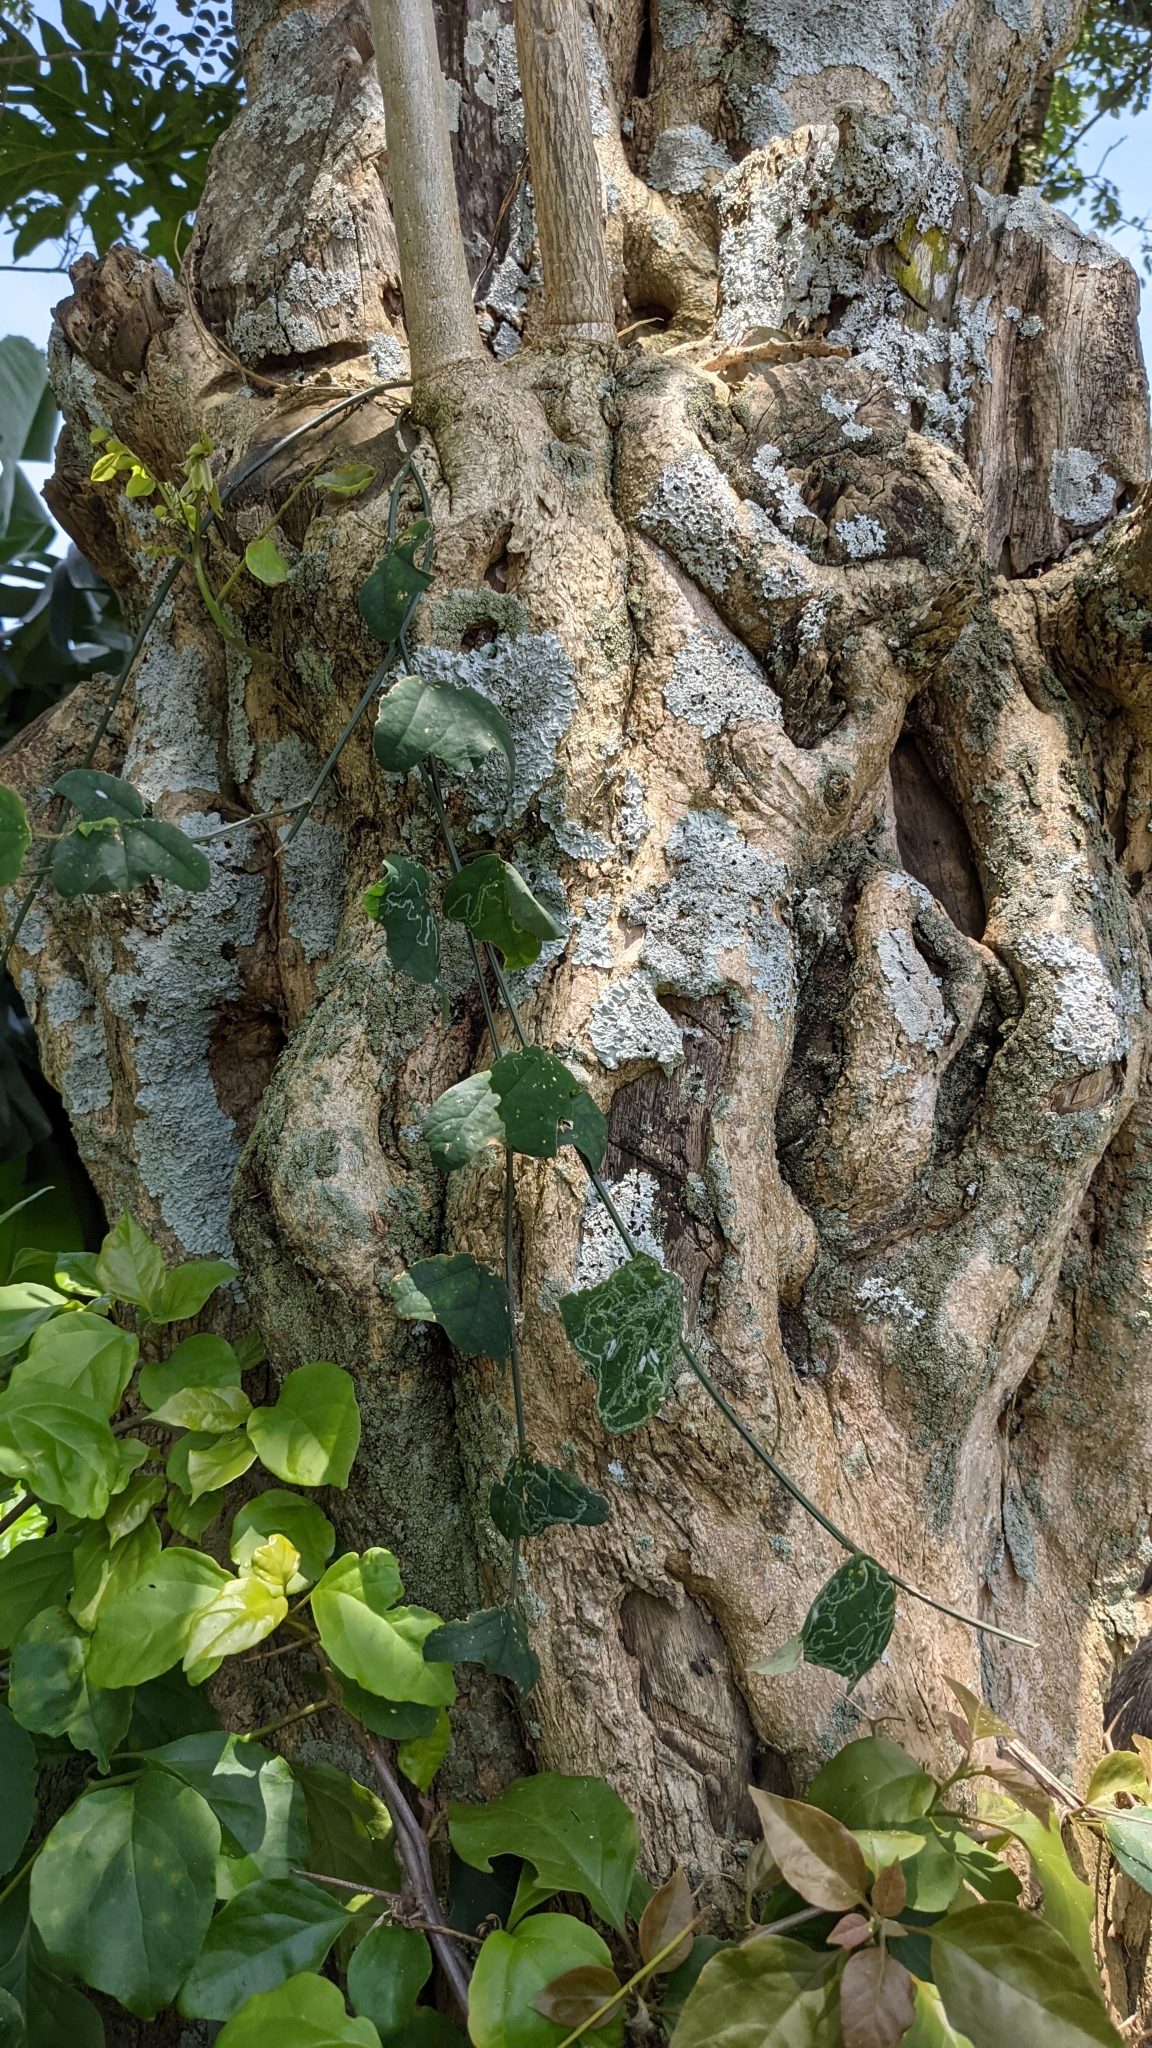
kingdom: Plantae
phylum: Tracheophyta
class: Magnoliopsida
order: Malpighiales
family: Passifloraceae
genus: Passiflora
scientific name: Passiflora biflora
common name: Twoflower passionflower
